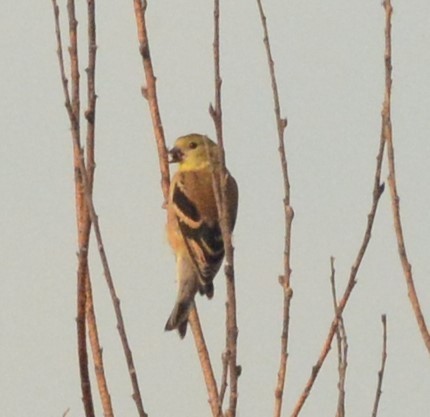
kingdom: Animalia
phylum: Chordata
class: Aves
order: Passeriformes
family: Fringillidae
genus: Spinus
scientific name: Spinus tristis
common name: American goldfinch
